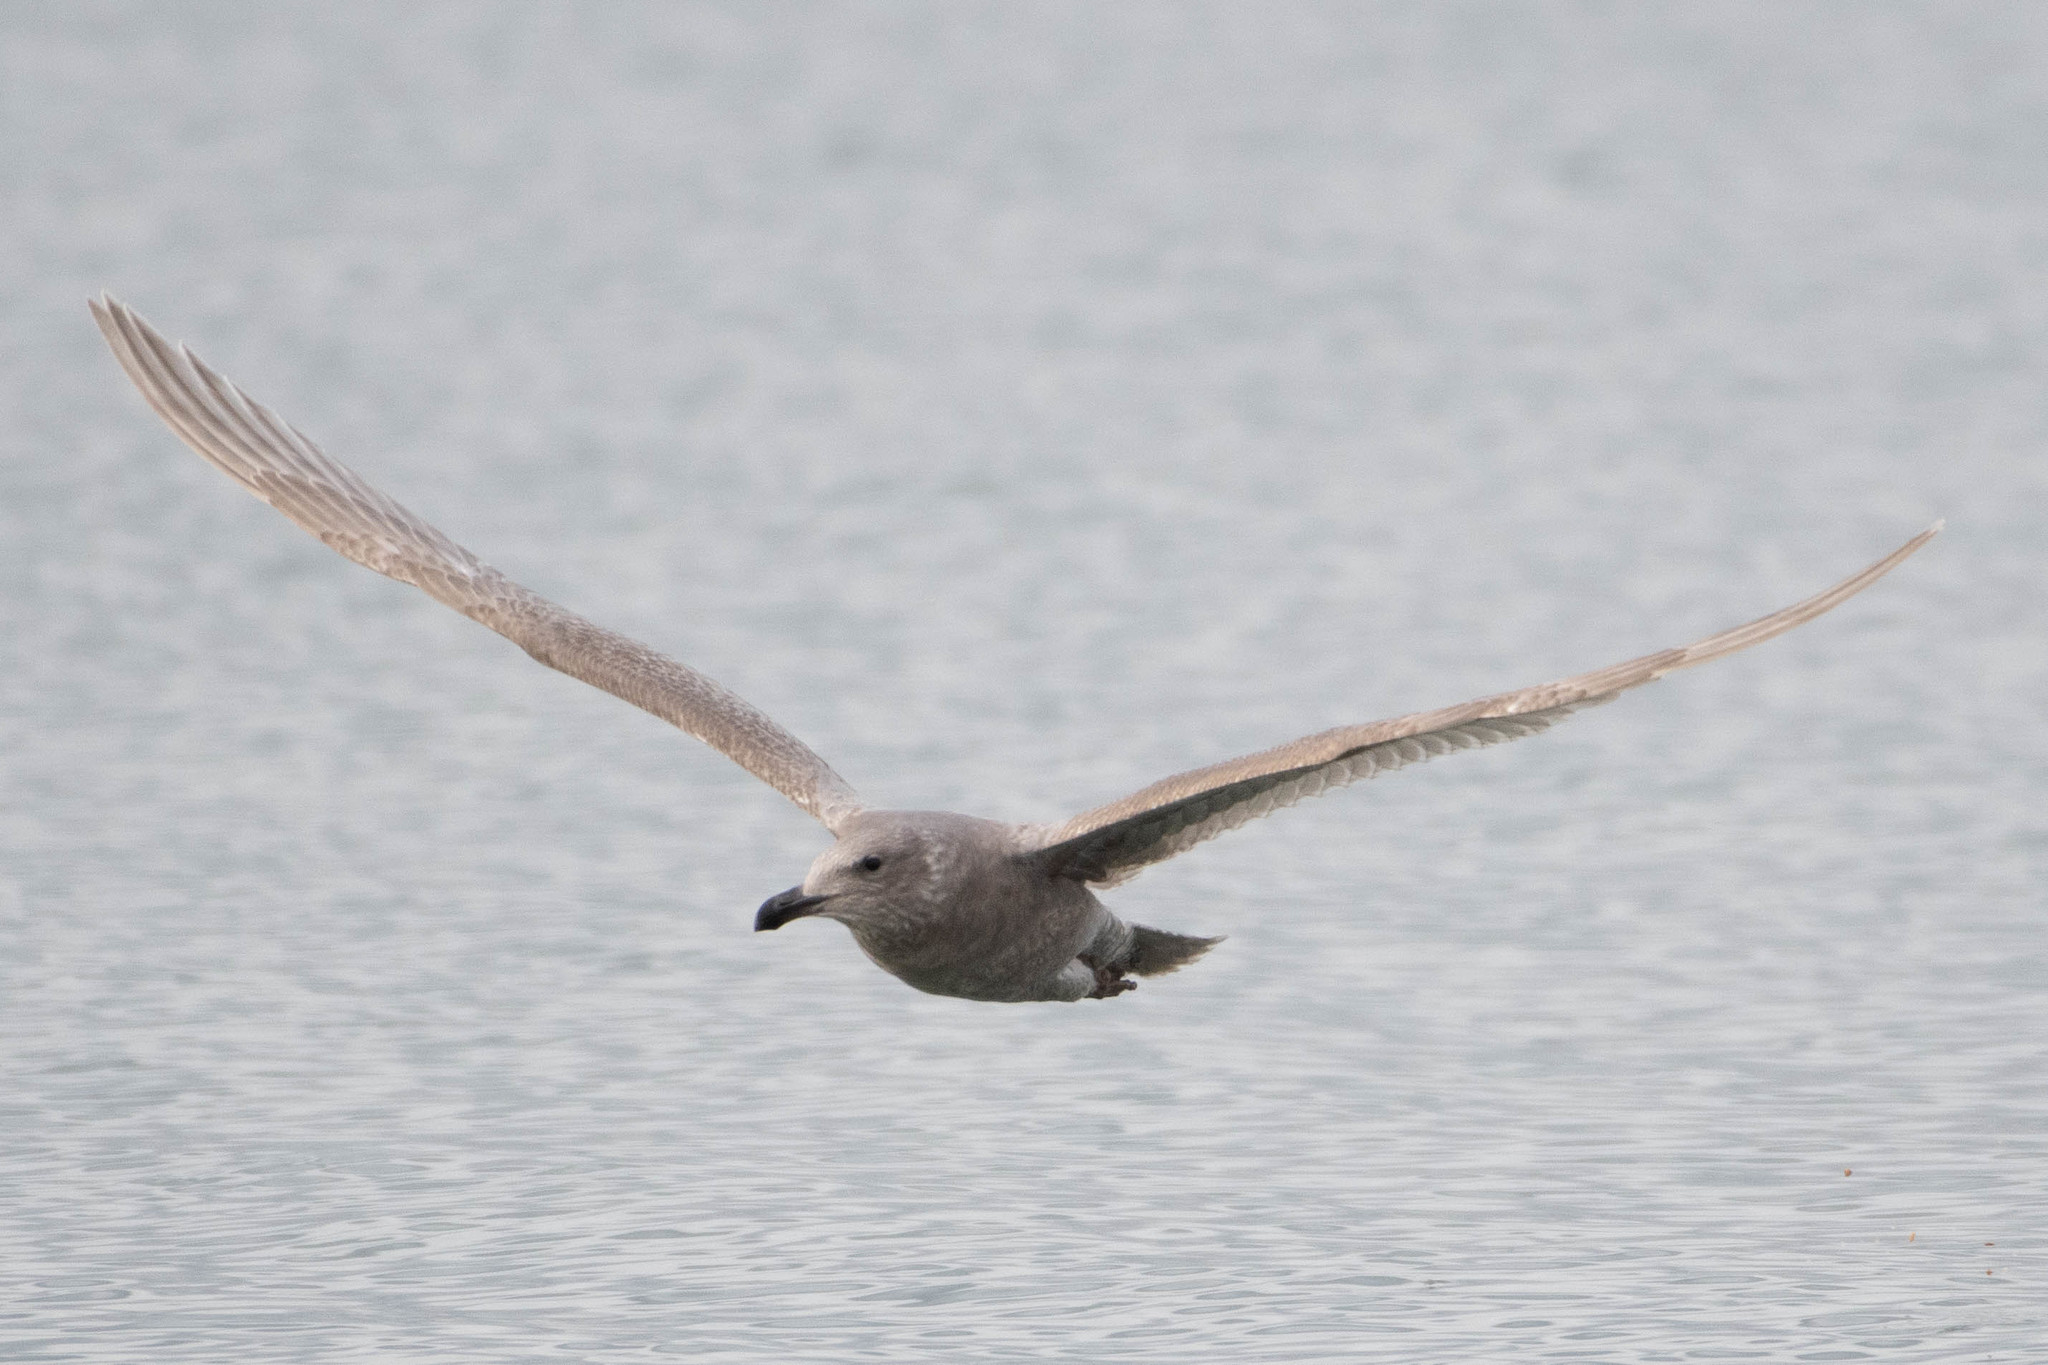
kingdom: Animalia
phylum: Chordata
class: Aves
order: Charadriiformes
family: Laridae
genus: Larus
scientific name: Larus glaucescens
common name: Glaucous-winged gull
